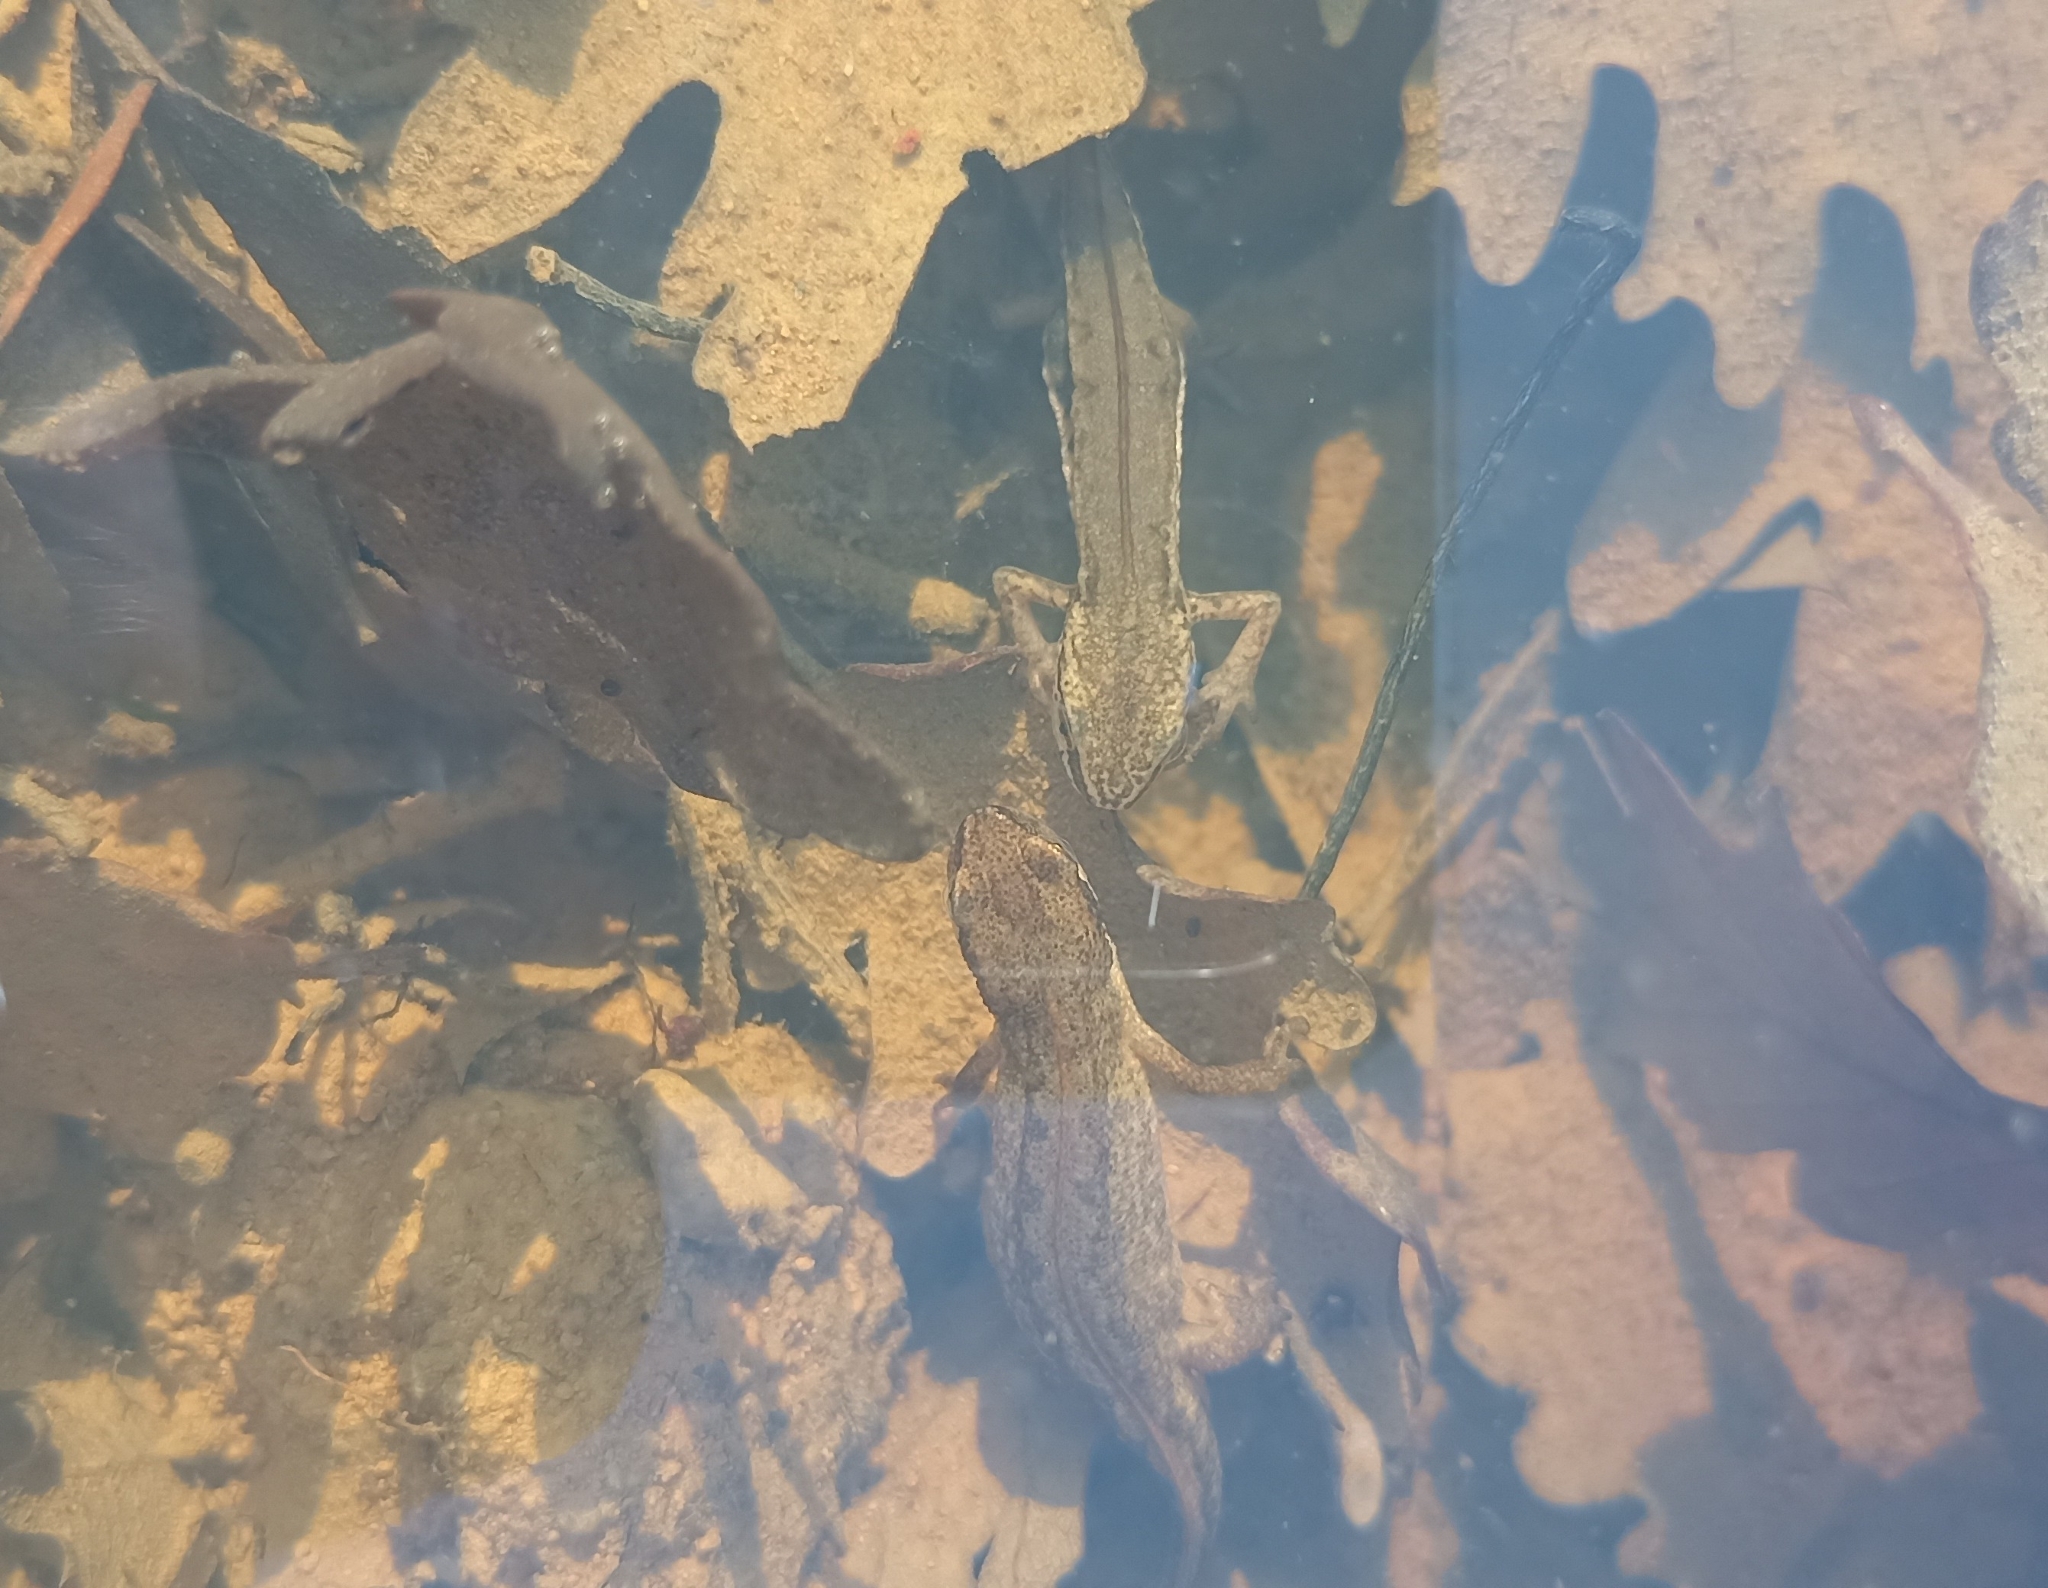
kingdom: Animalia
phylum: Chordata
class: Amphibia
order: Caudata
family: Salamandridae
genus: Lissotriton
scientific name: Lissotriton helveticus
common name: Palmate newt
